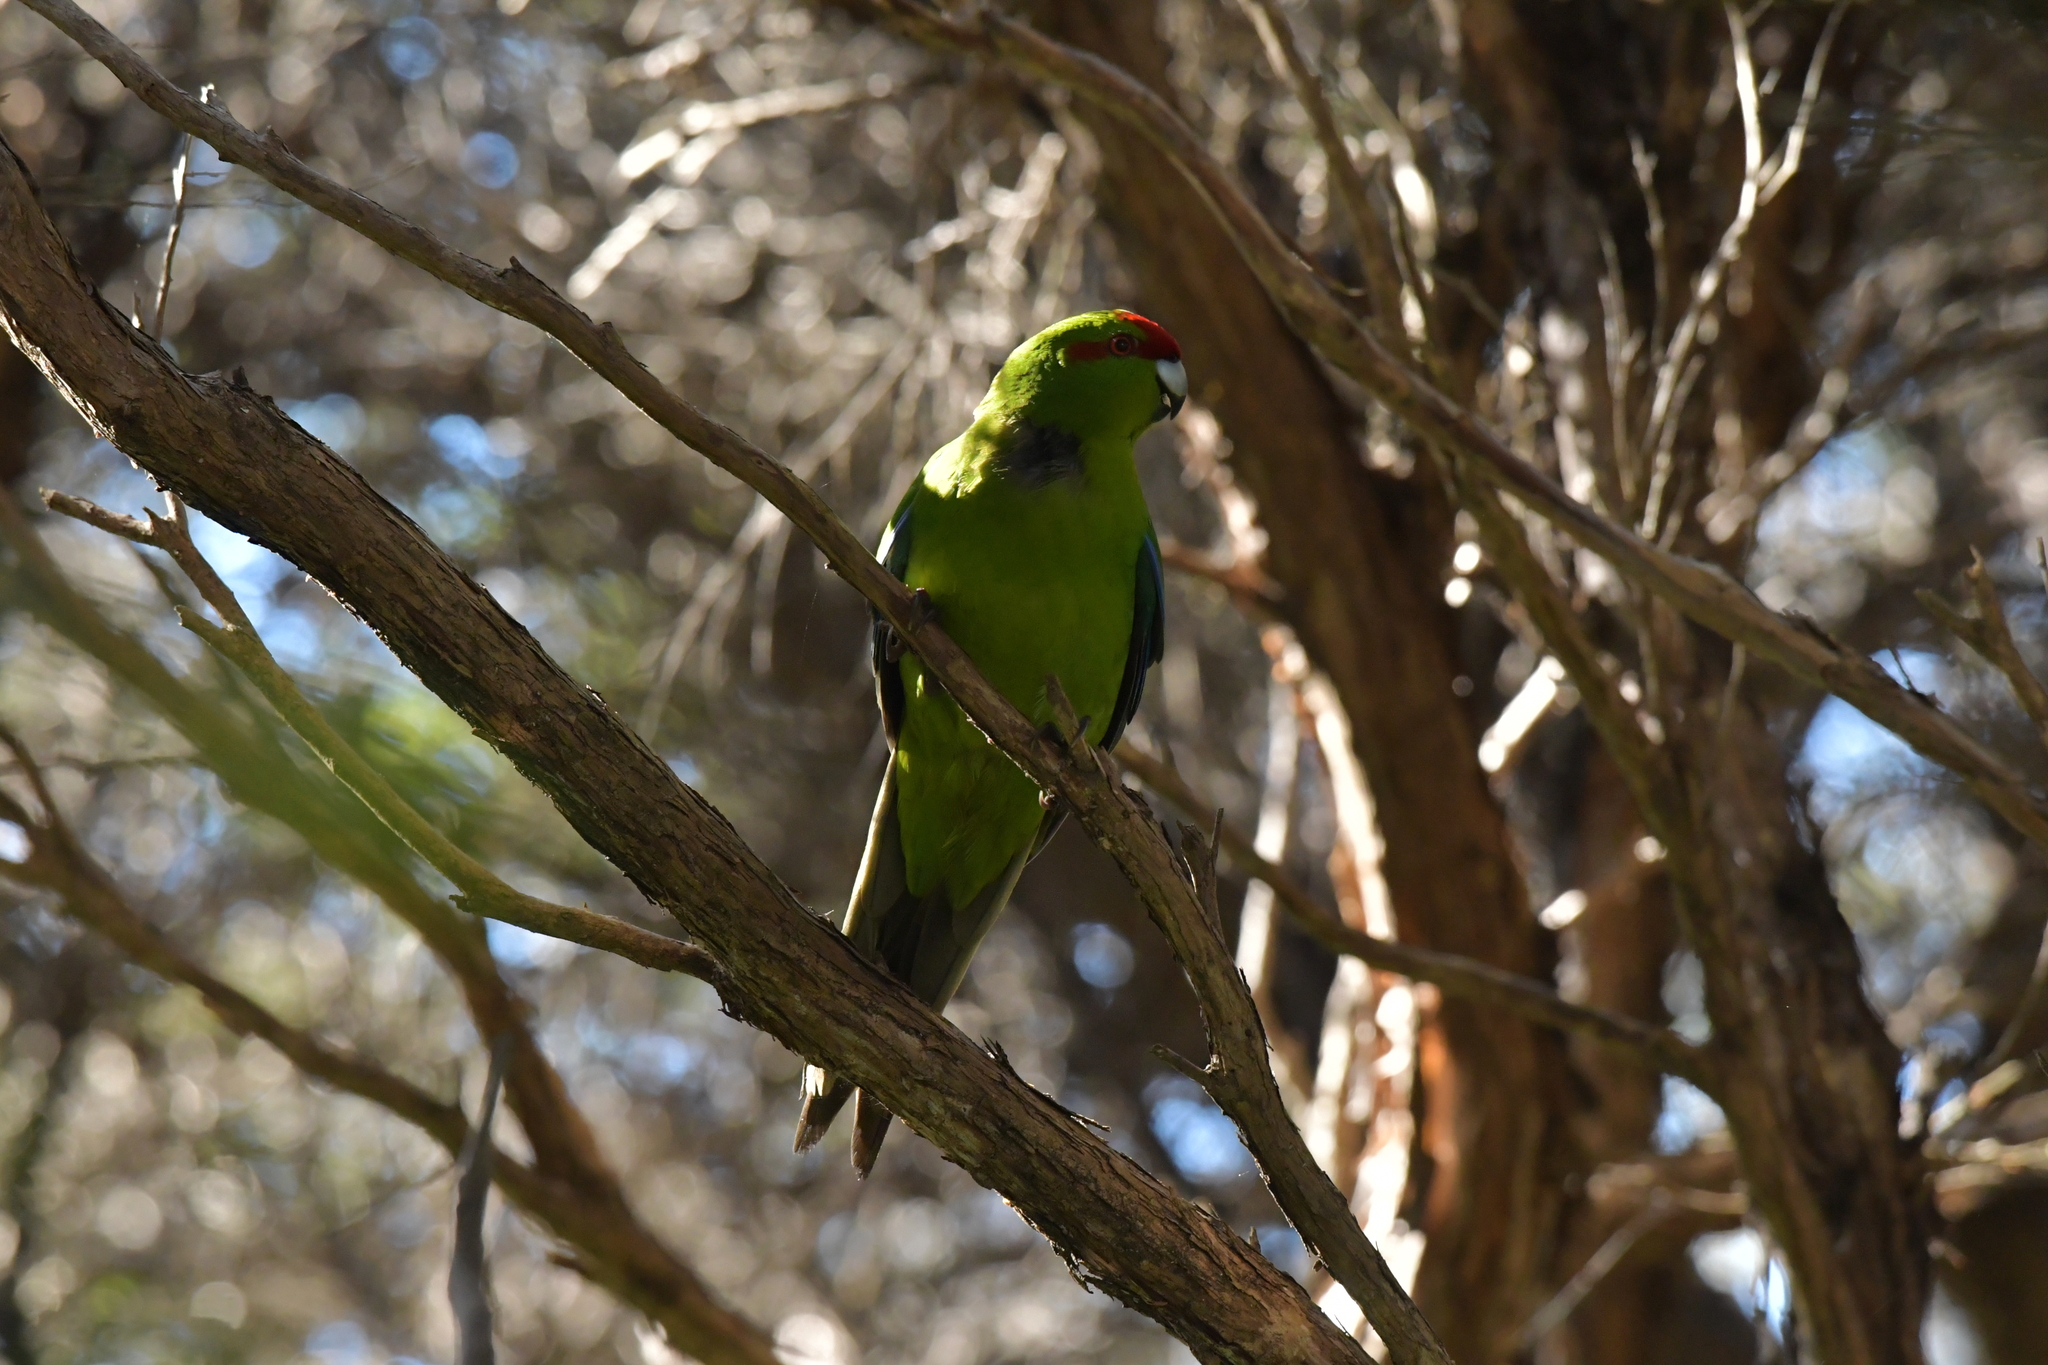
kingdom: Animalia
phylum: Chordata
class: Aves
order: Psittaciformes
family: Psittacidae
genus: Cyanoramphus
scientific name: Cyanoramphus novaezelandiae
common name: Red-fronted parakeet
